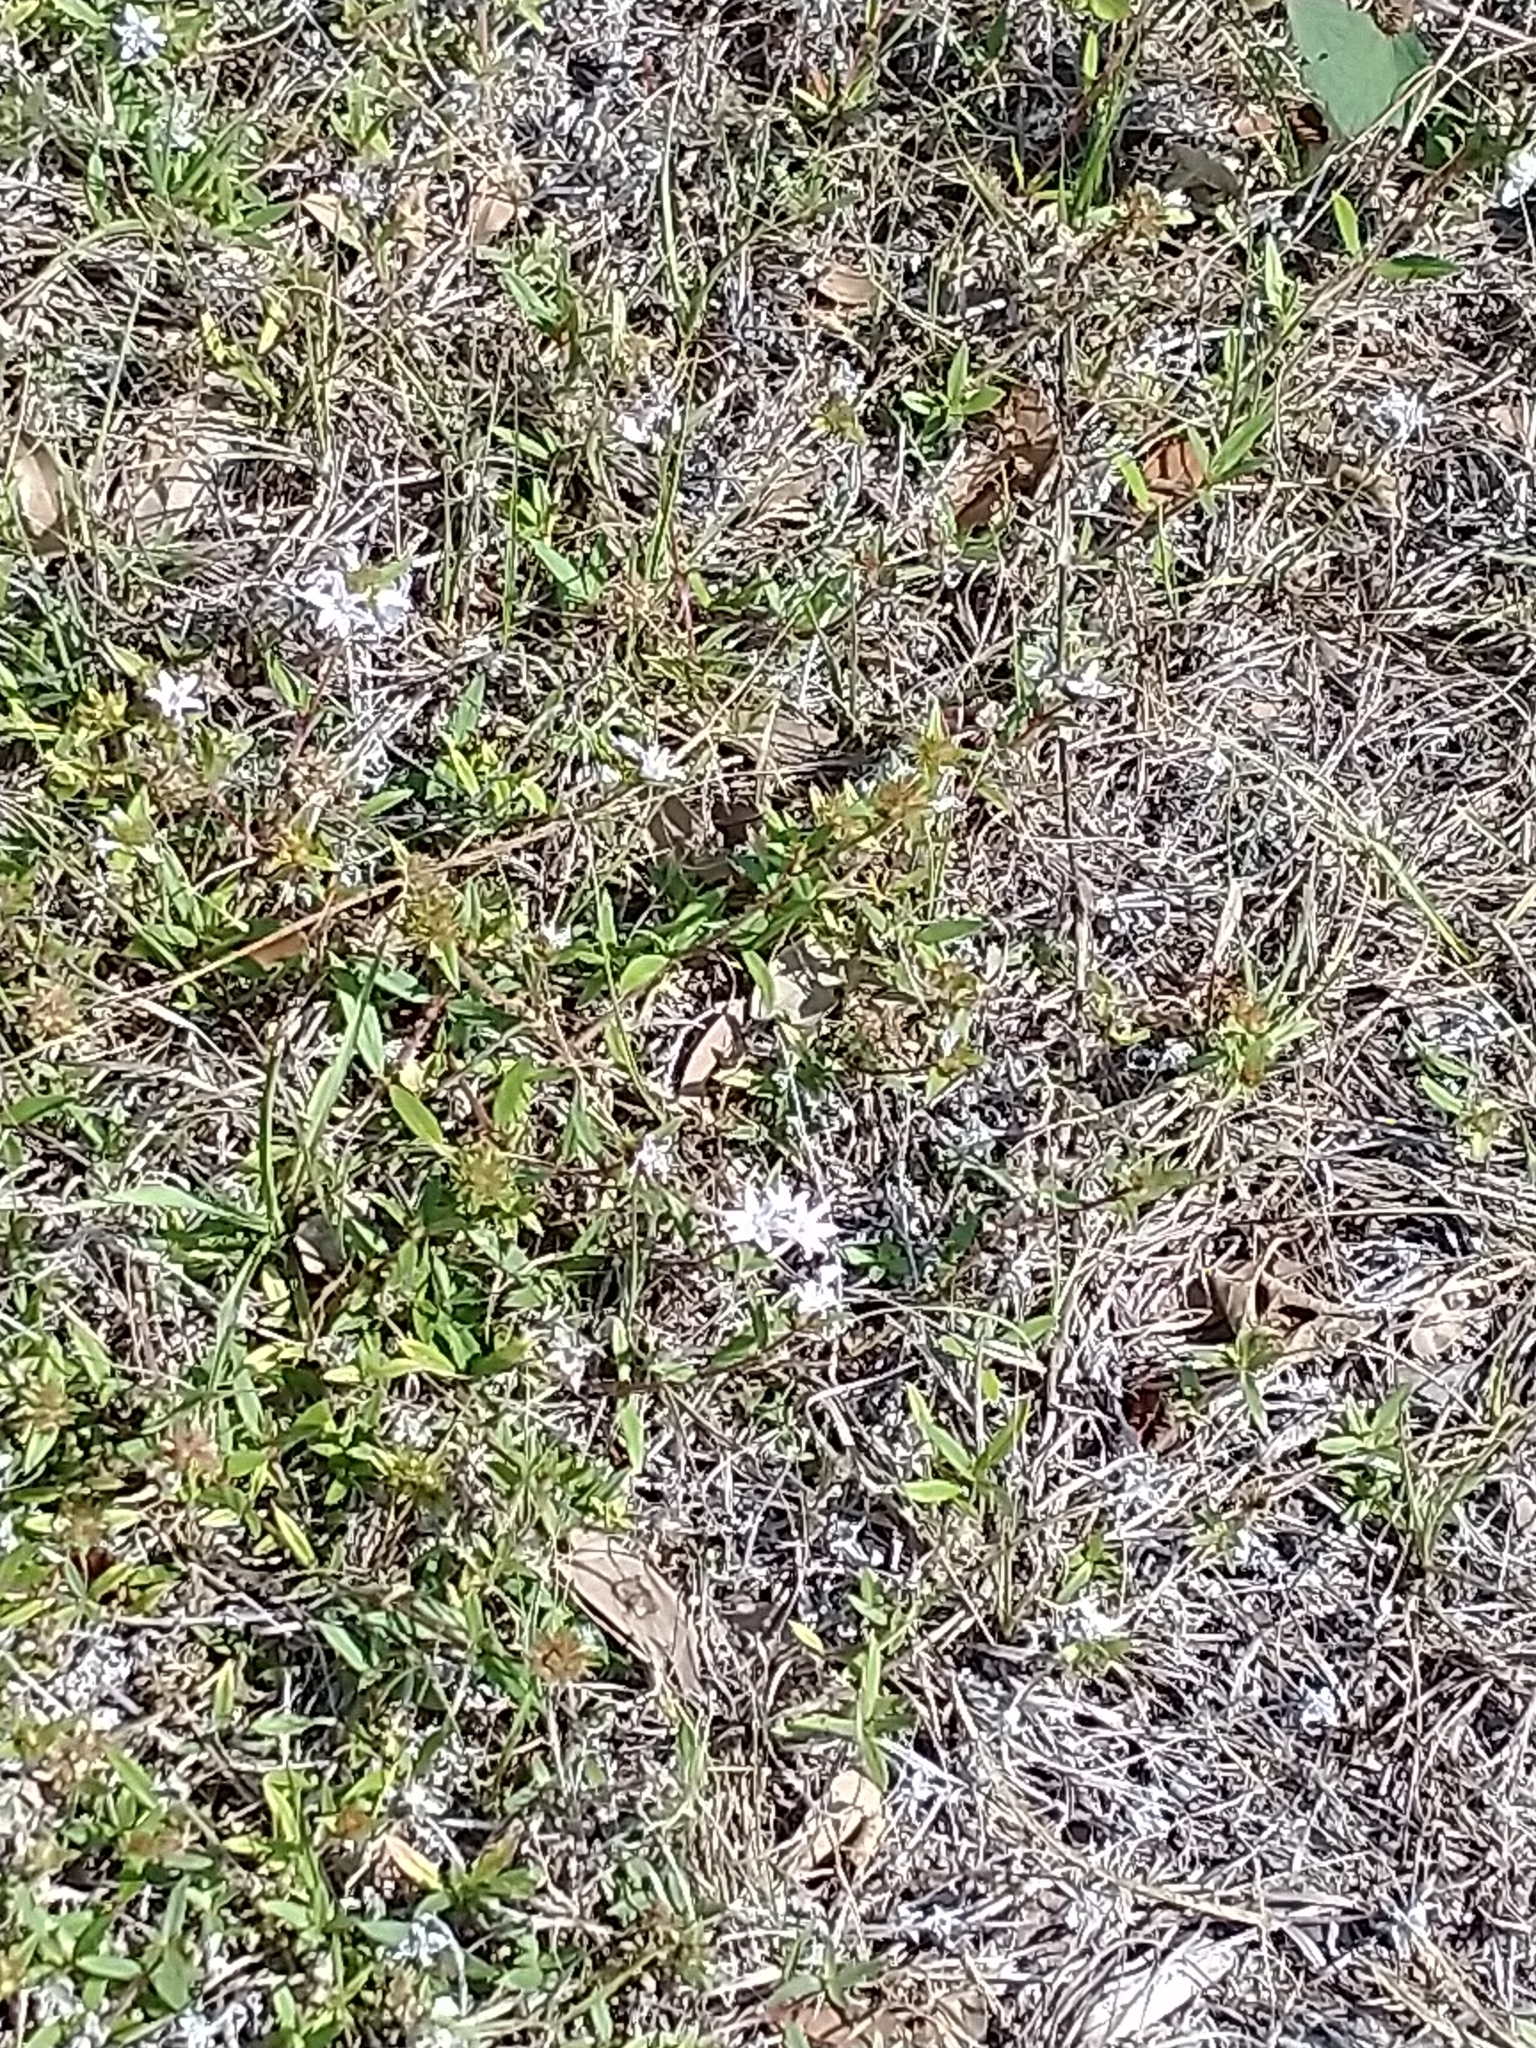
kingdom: Plantae
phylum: Tracheophyta
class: Magnoliopsida
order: Gentianales
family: Rubiaceae
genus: Richardia
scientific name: Richardia grandiflora
